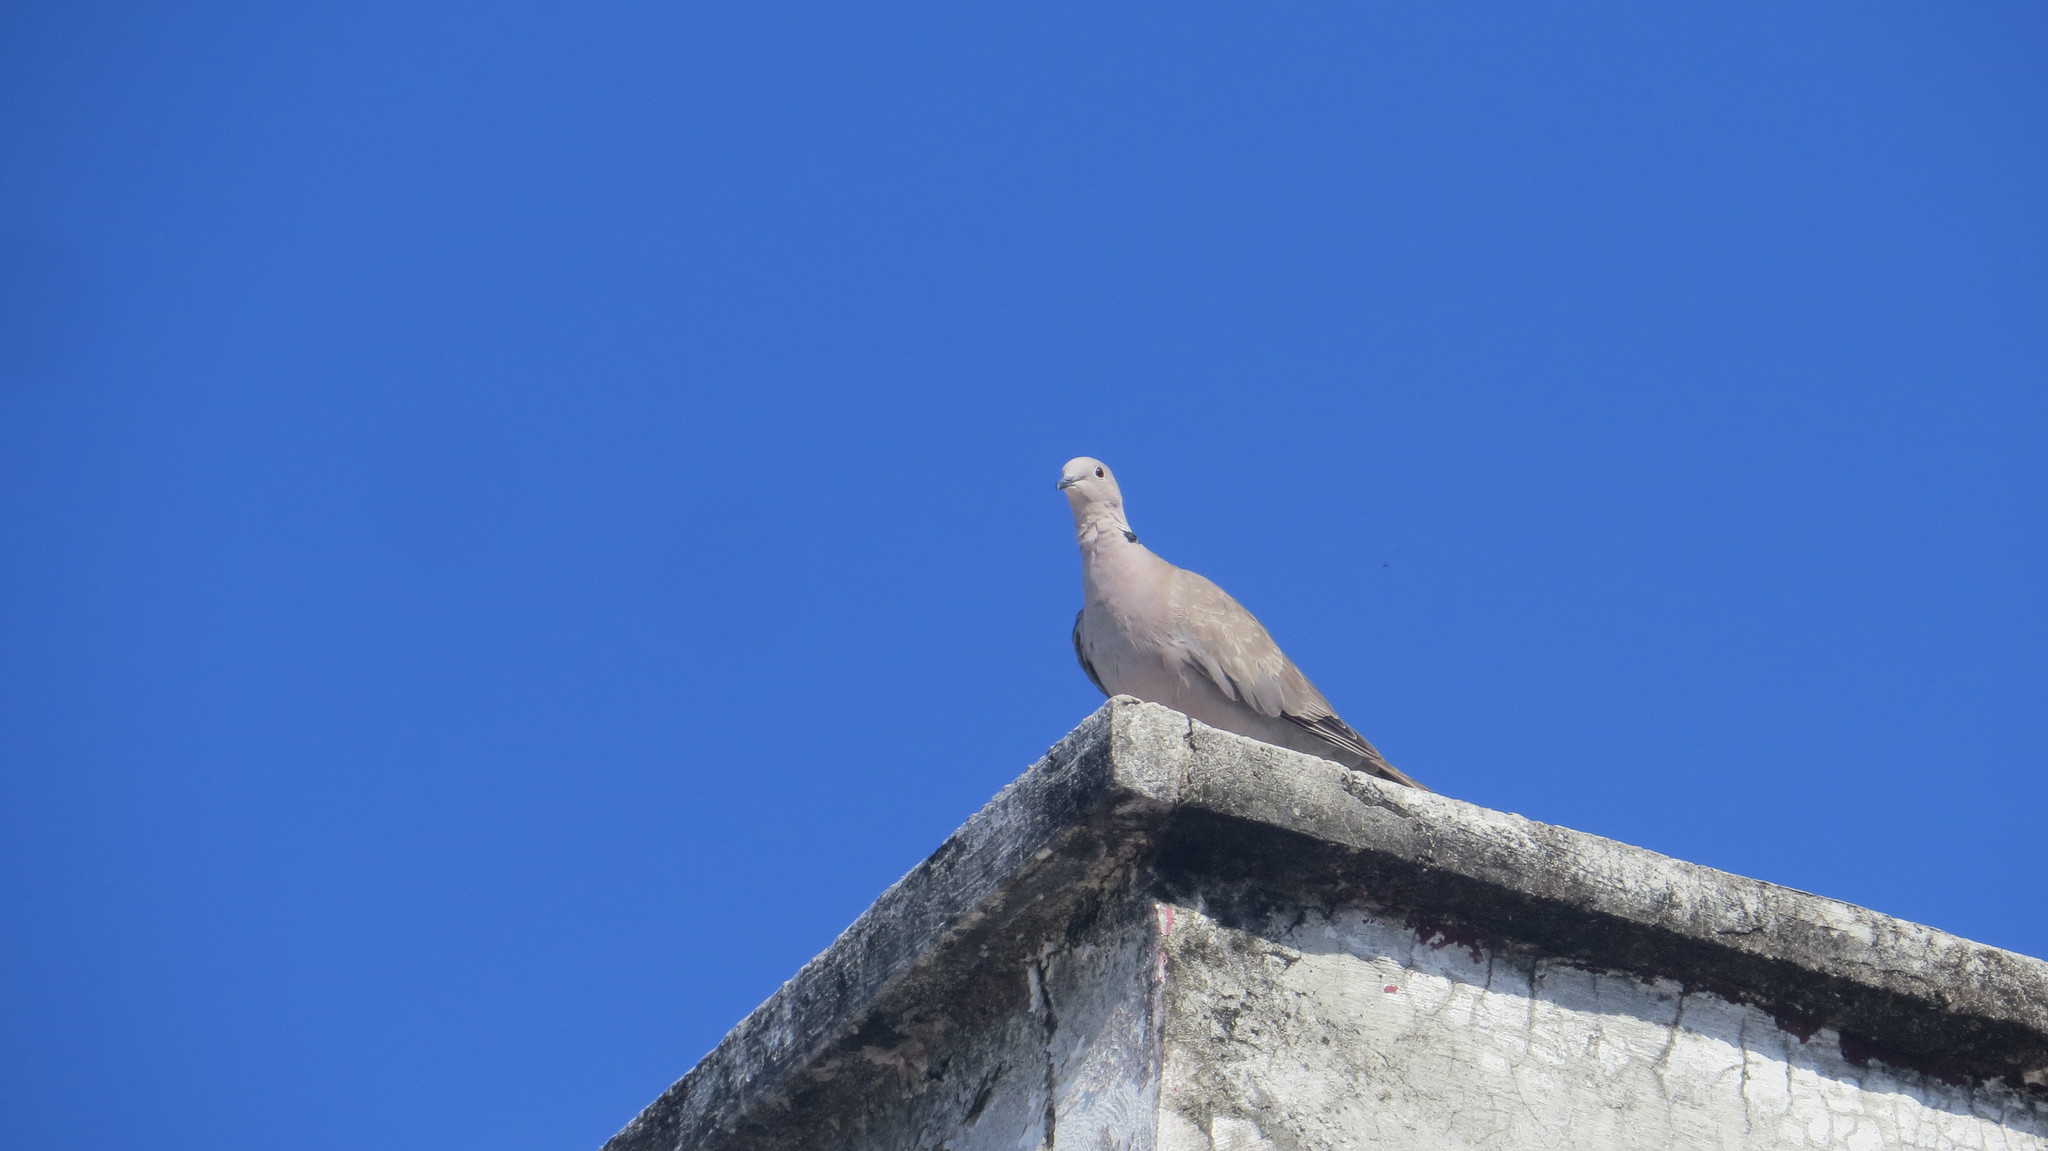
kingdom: Animalia
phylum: Chordata
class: Aves
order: Columbiformes
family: Columbidae
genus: Streptopelia
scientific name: Streptopelia decaocto
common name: Eurasian collared dove
